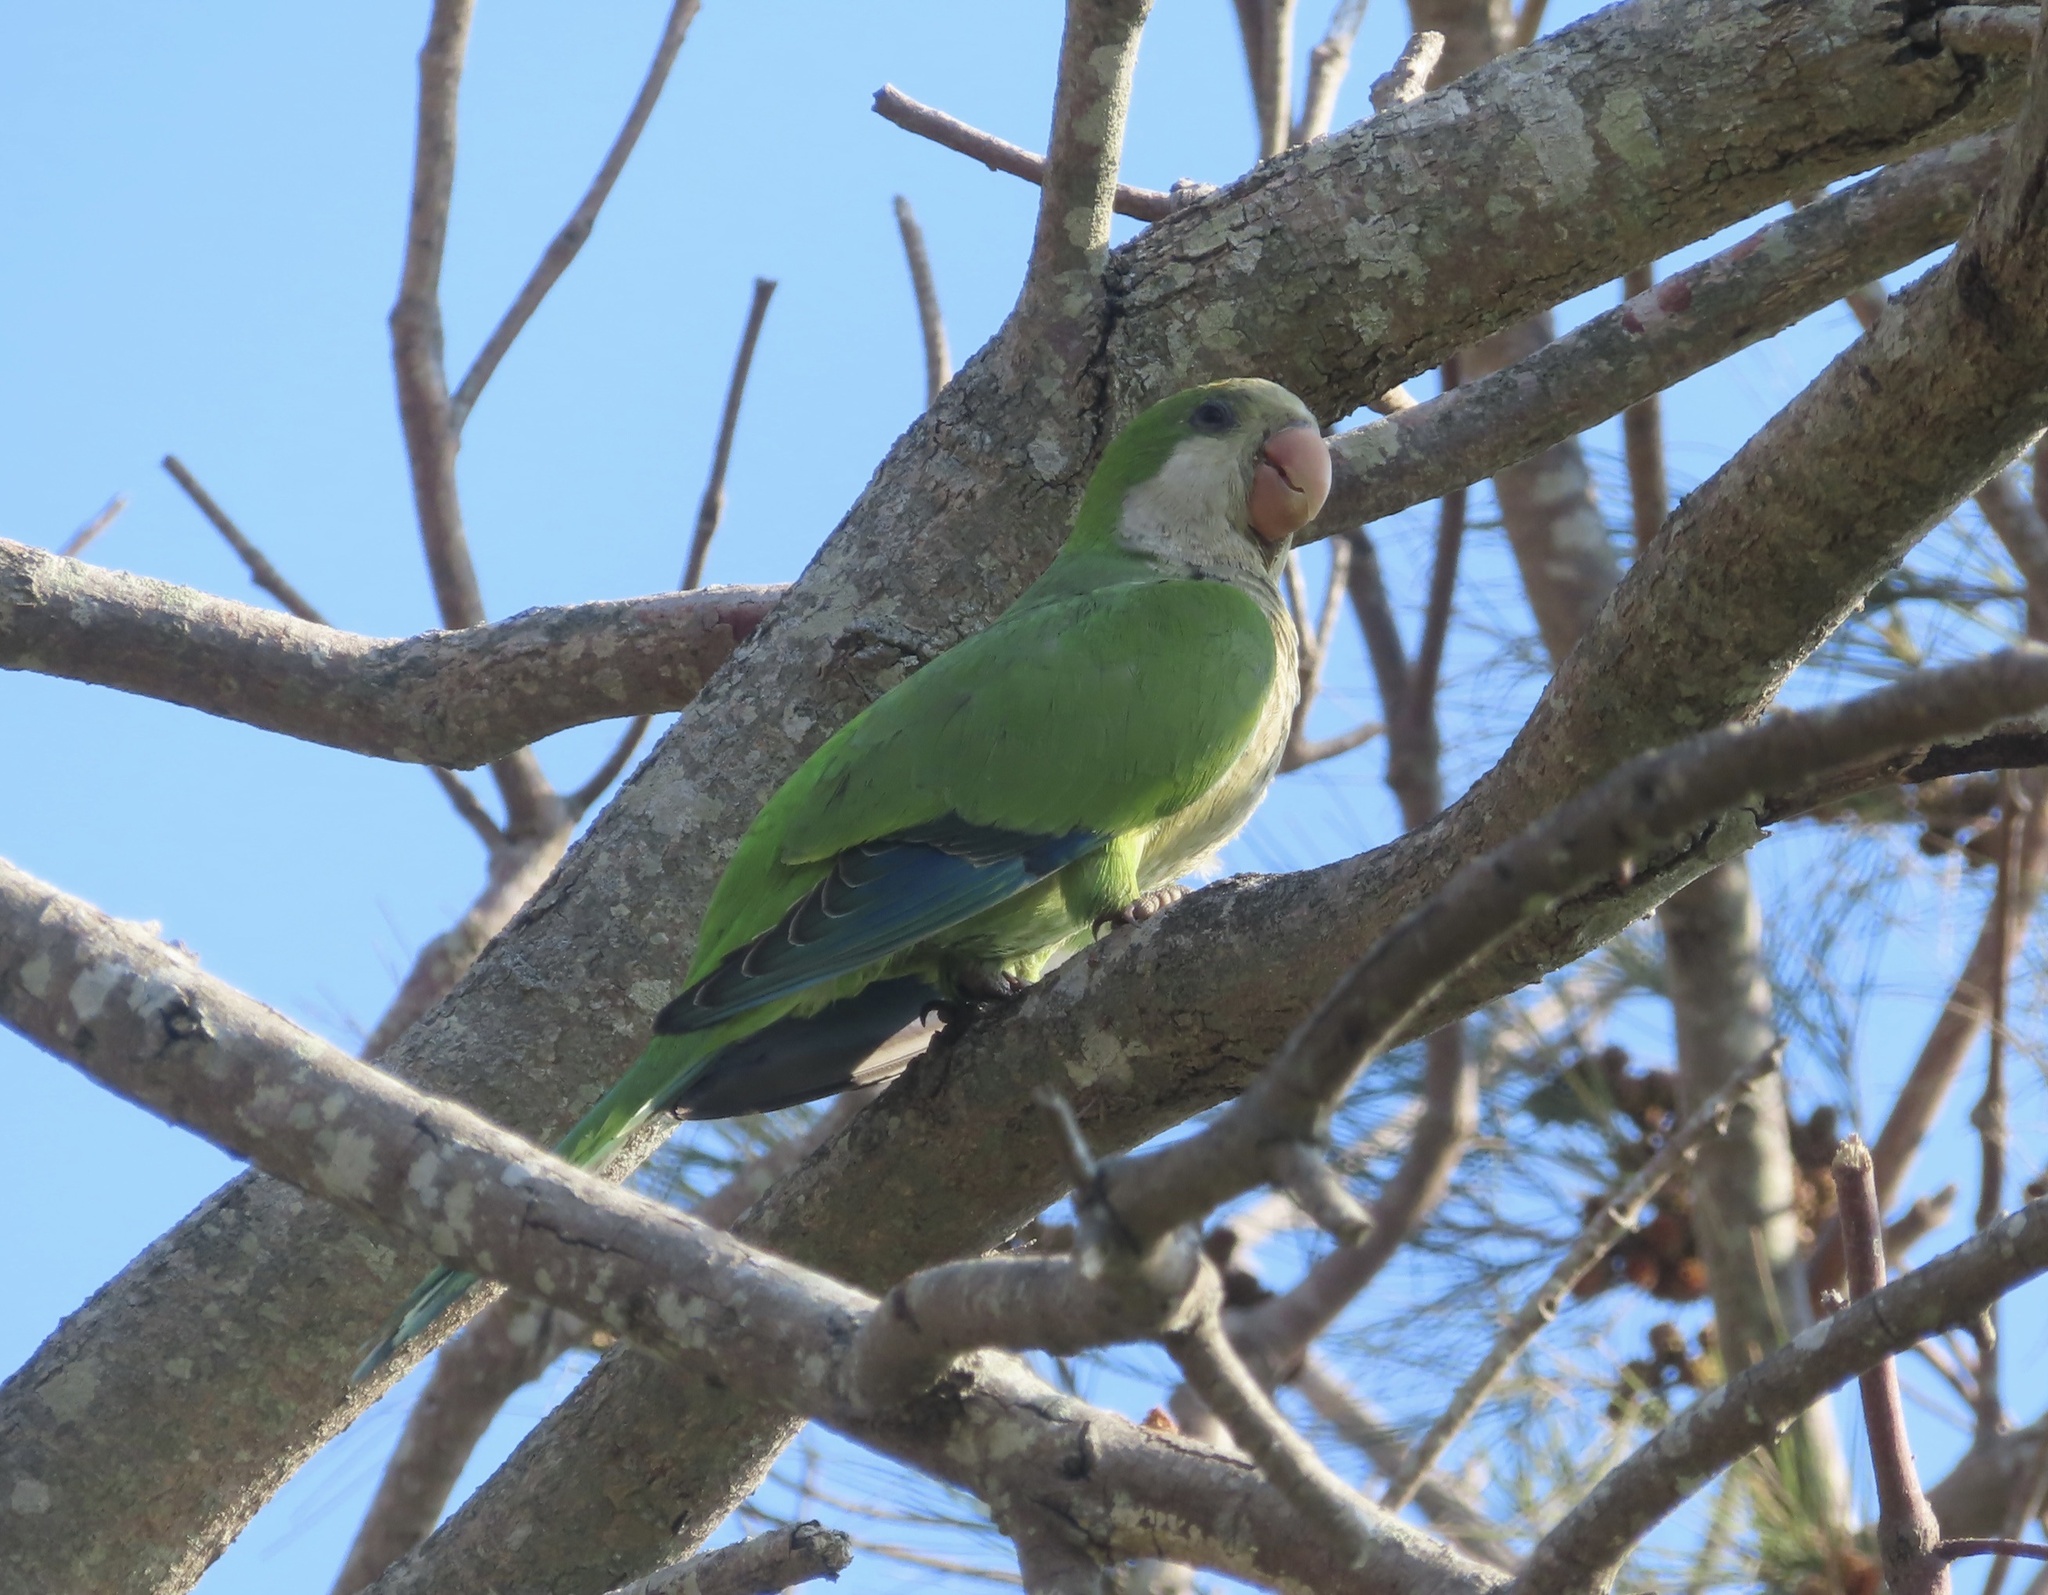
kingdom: Animalia
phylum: Chordata
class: Aves
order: Psittaciformes
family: Psittacidae
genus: Myiopsitta
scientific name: Myiopsitta monachus
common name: Monk parakeet
